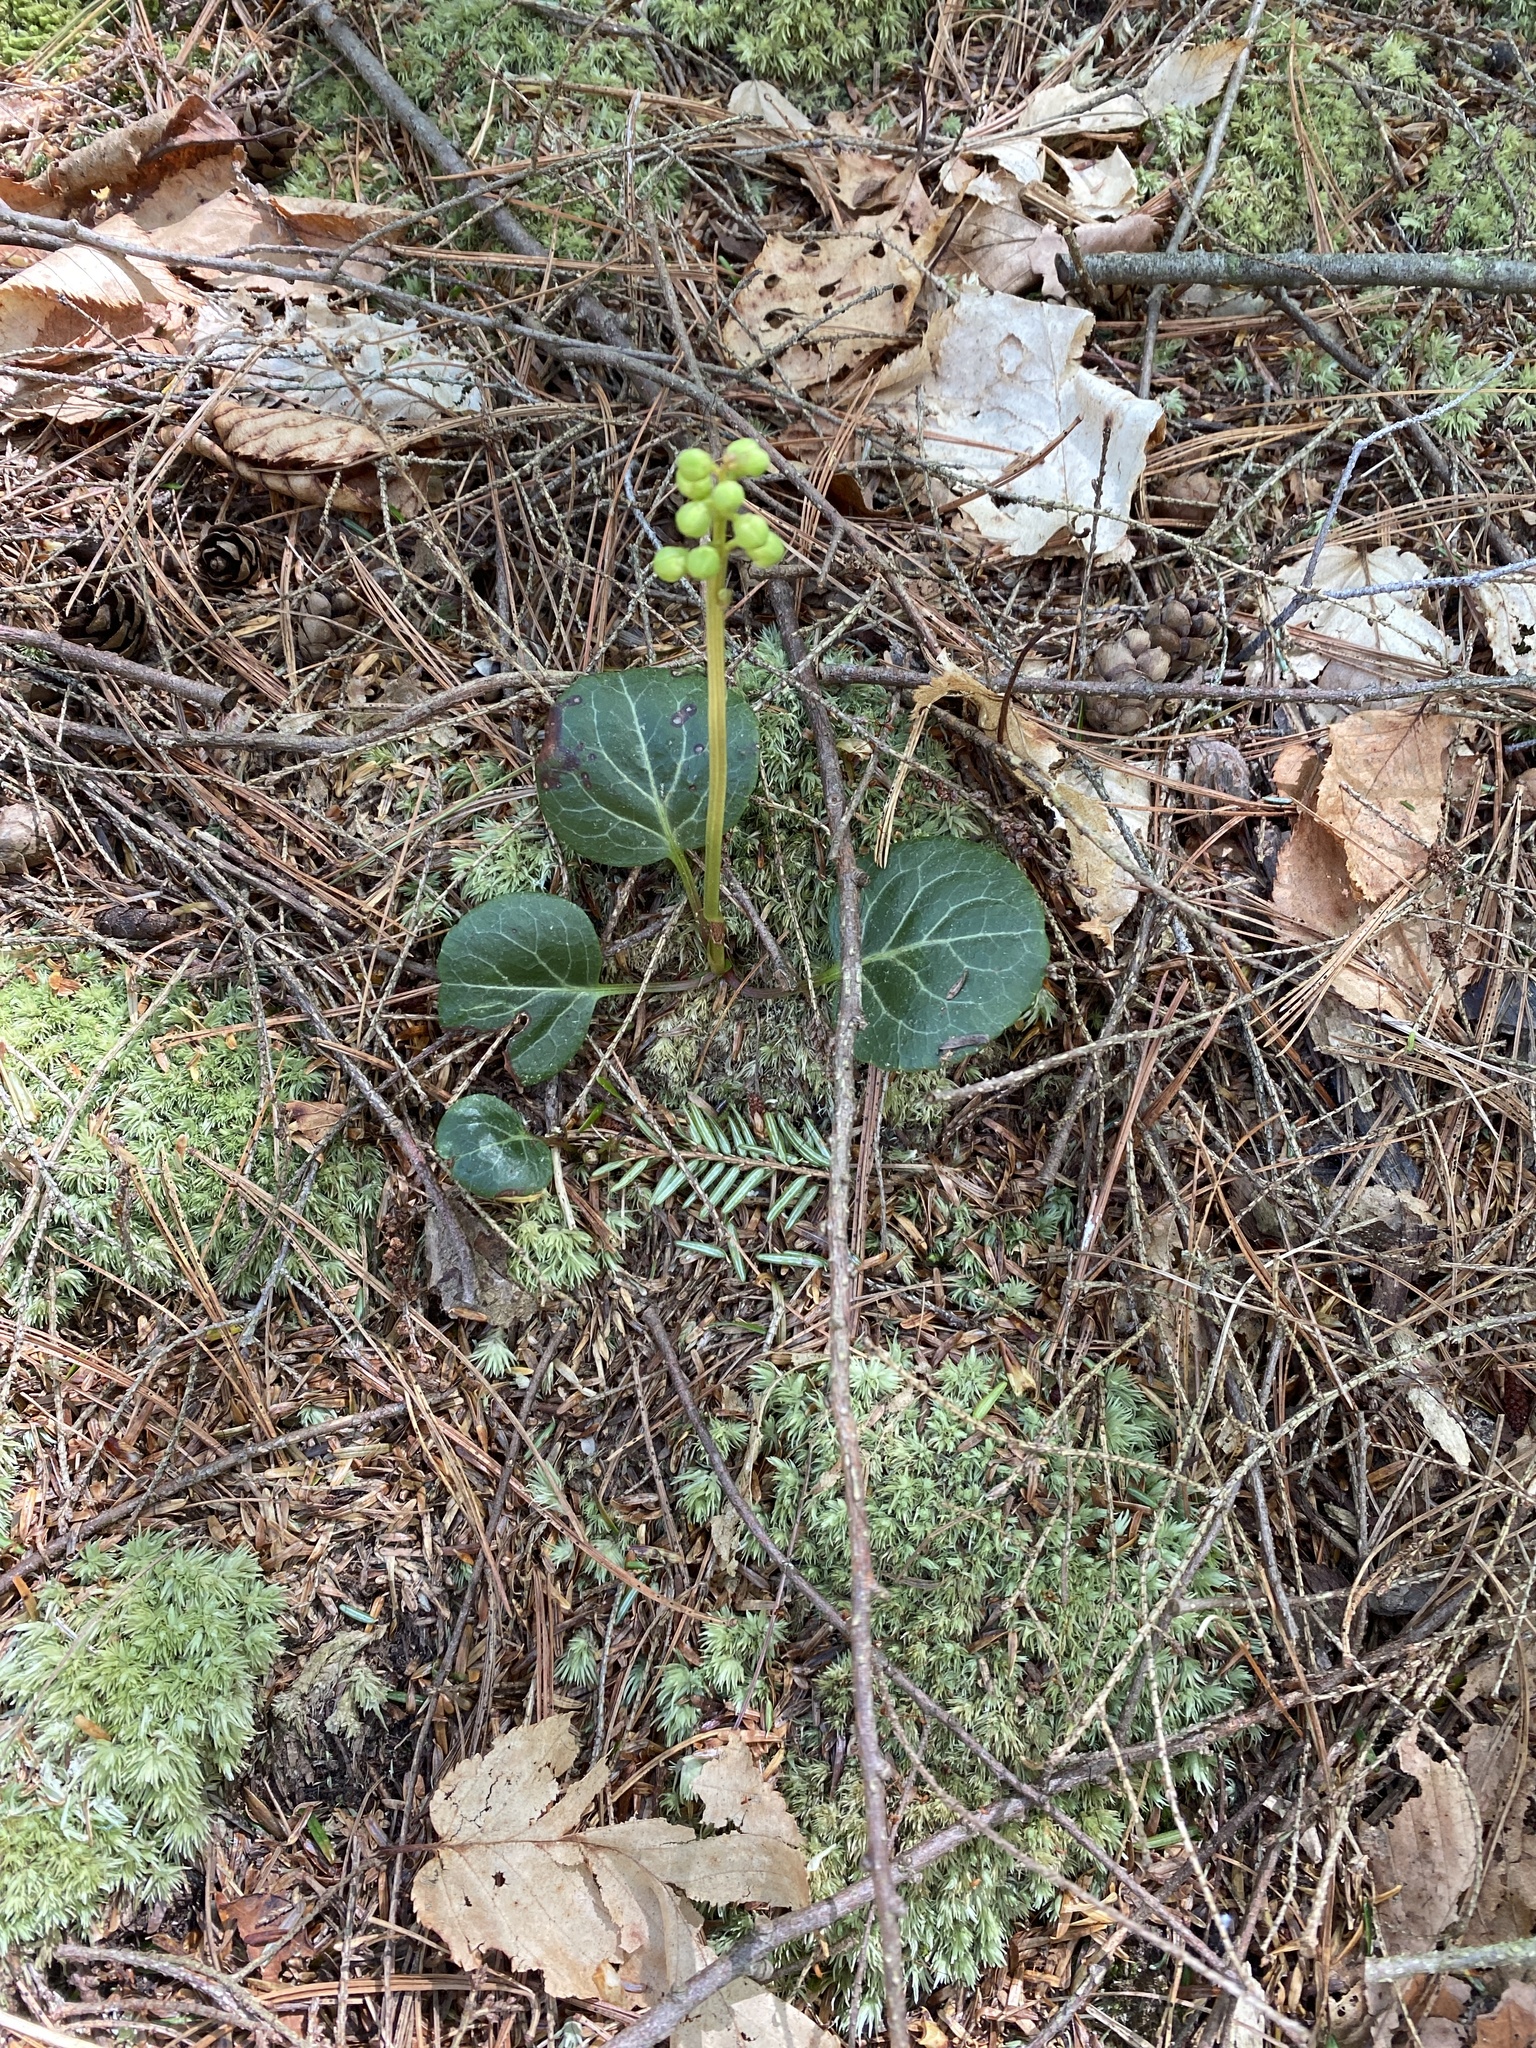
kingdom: Plantae
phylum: Tracheophyta
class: Magnoliopsida
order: Ericales
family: Ericaceae
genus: Pyrola
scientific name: Pyrola americana
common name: American wintergreen
